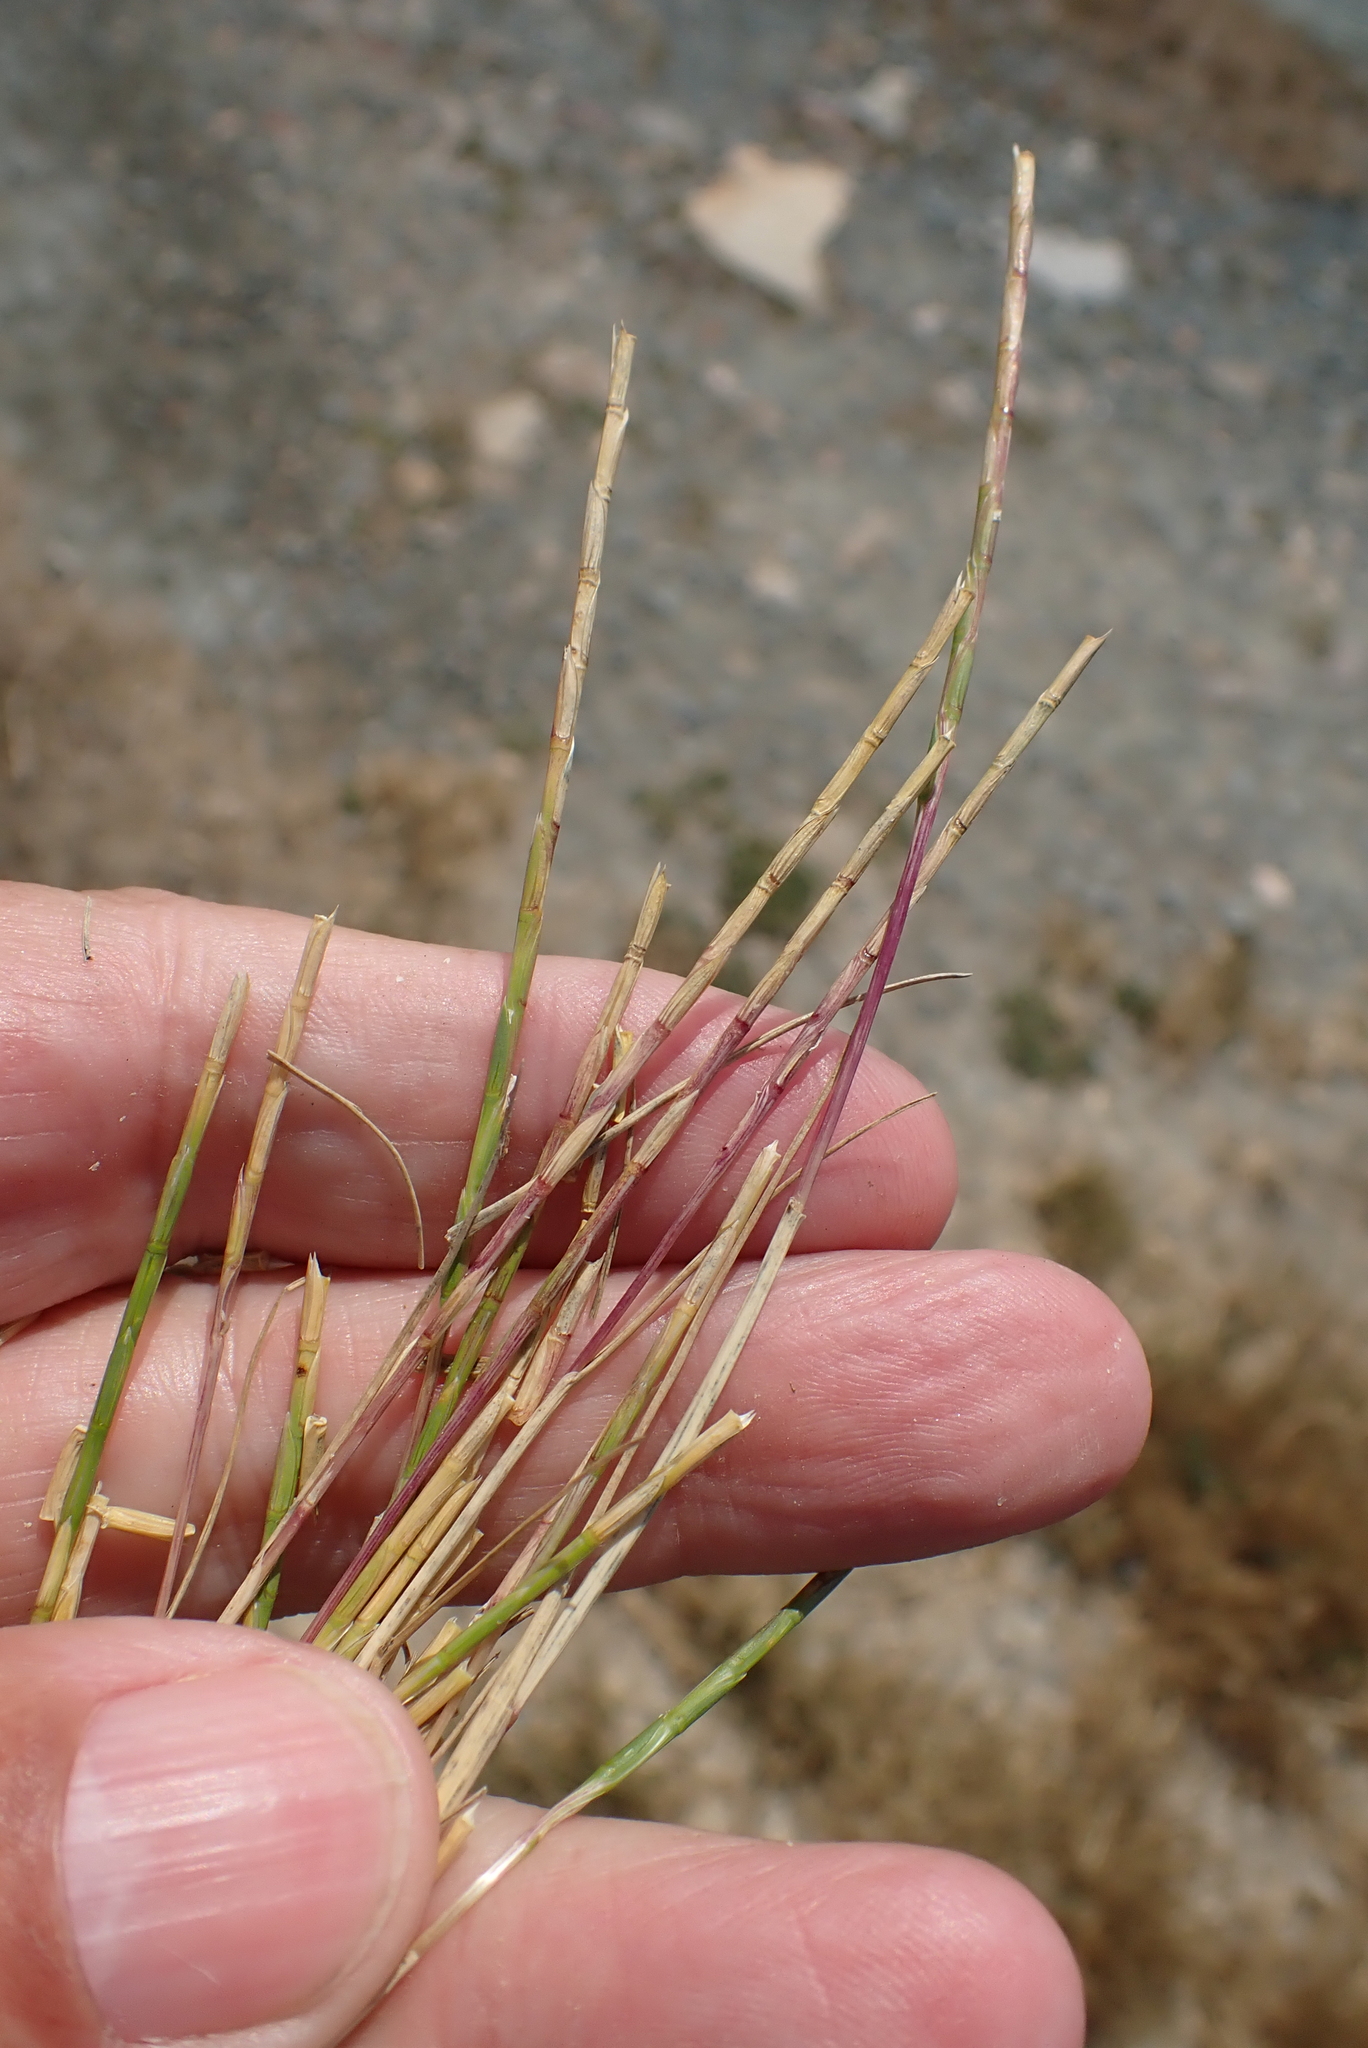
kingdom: Plantae
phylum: Tracheophyta
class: Liliopsida
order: Poales
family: Poaceae
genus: Parapholis
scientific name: Parapholis strigosa
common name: Hard-grass
